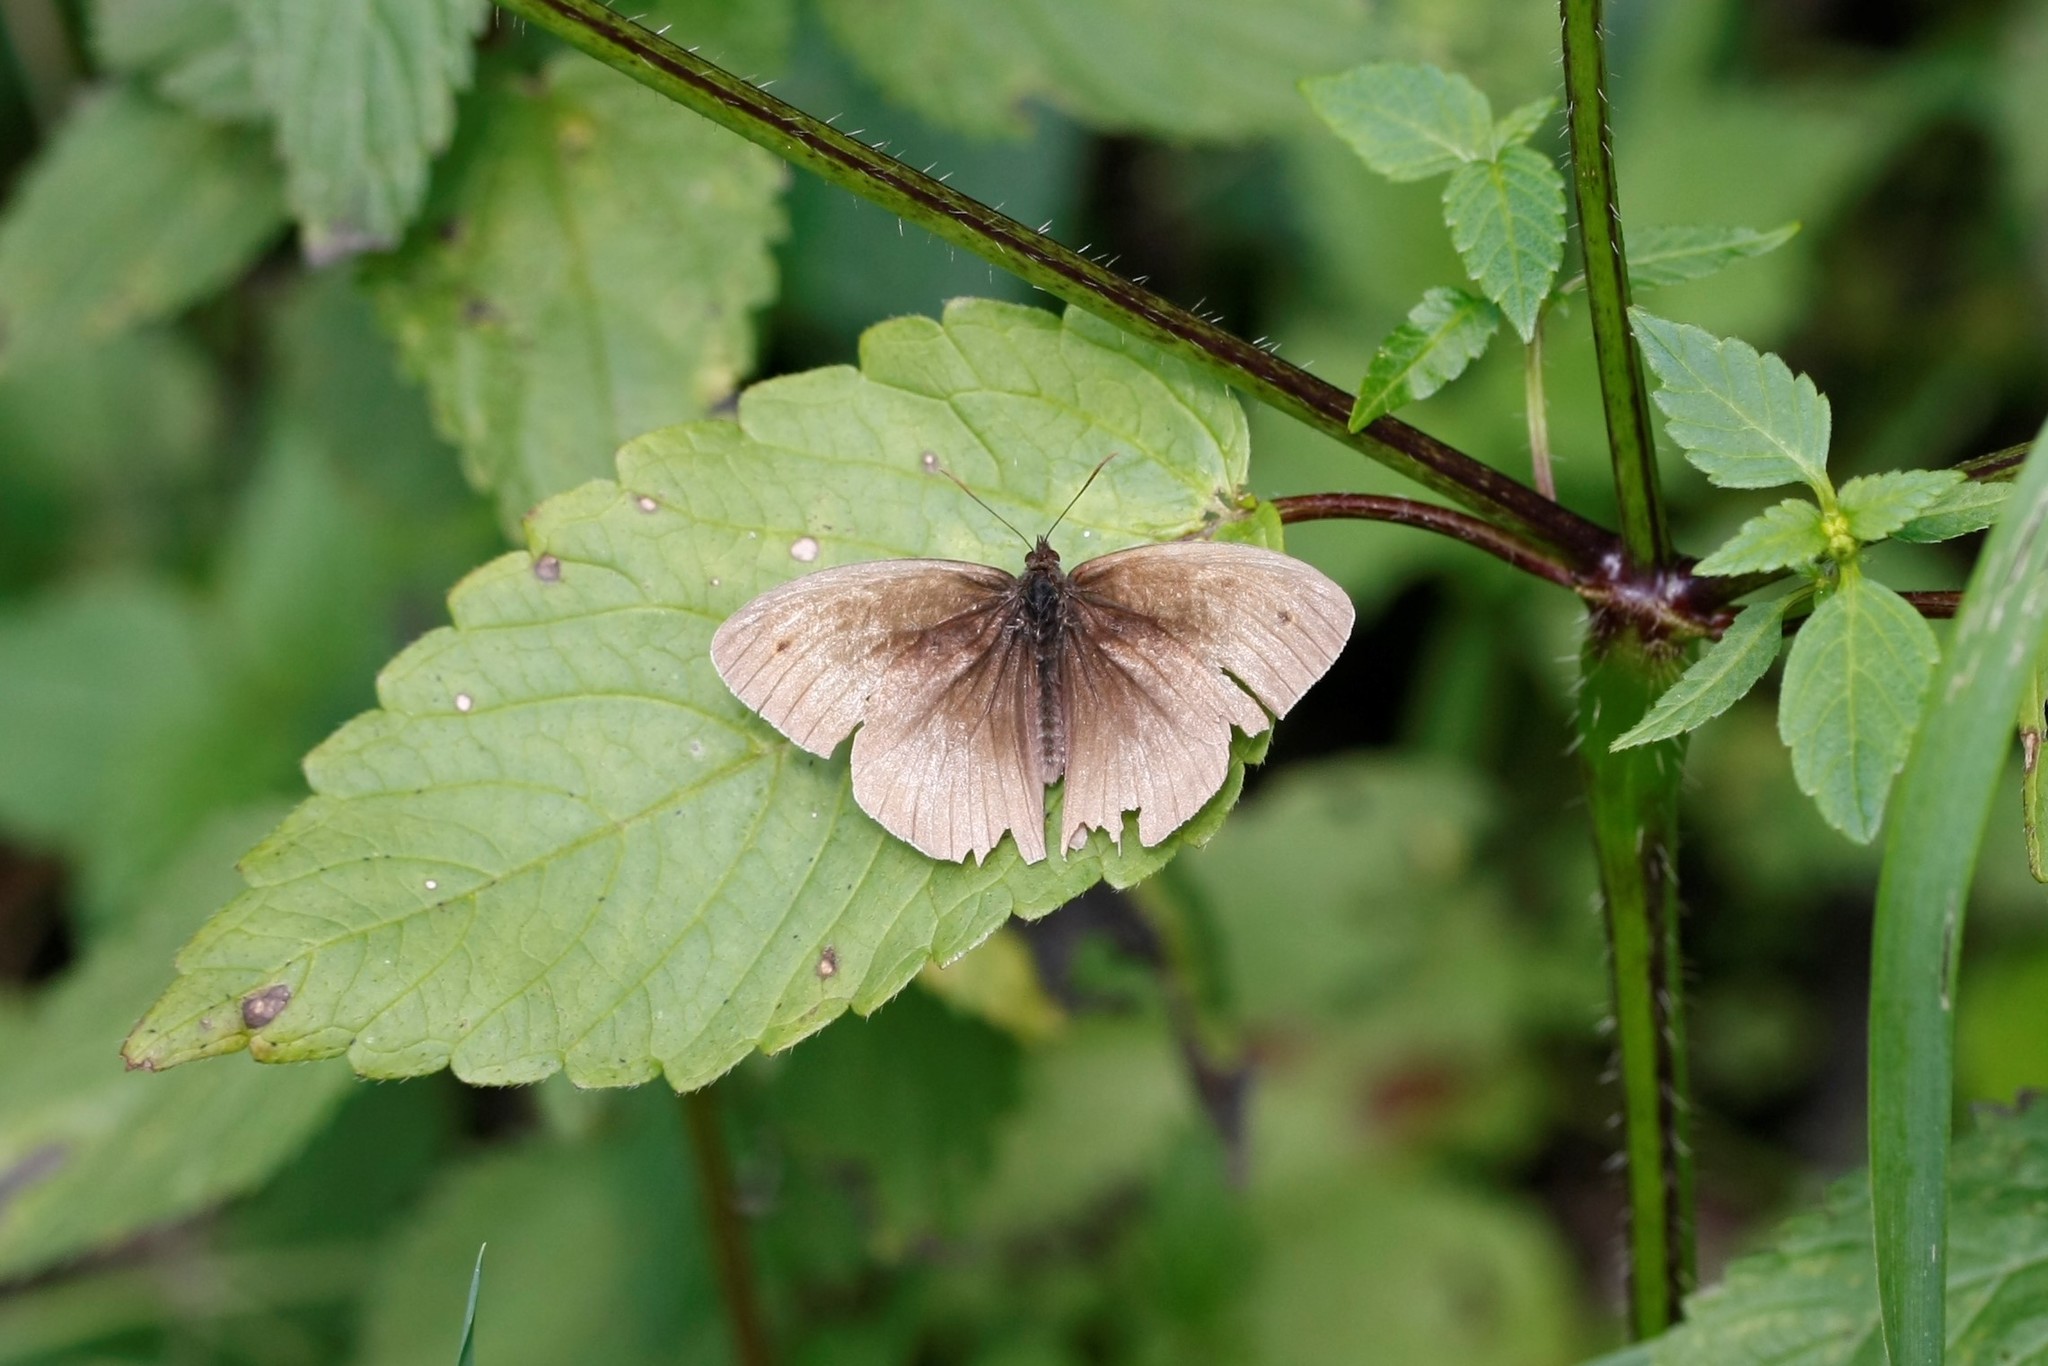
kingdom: Animalia
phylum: Arthropoda
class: Insecta
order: Lepidoptera
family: Nymphalidae
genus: Maniola
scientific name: Maniola jurtina
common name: Meadow brown
